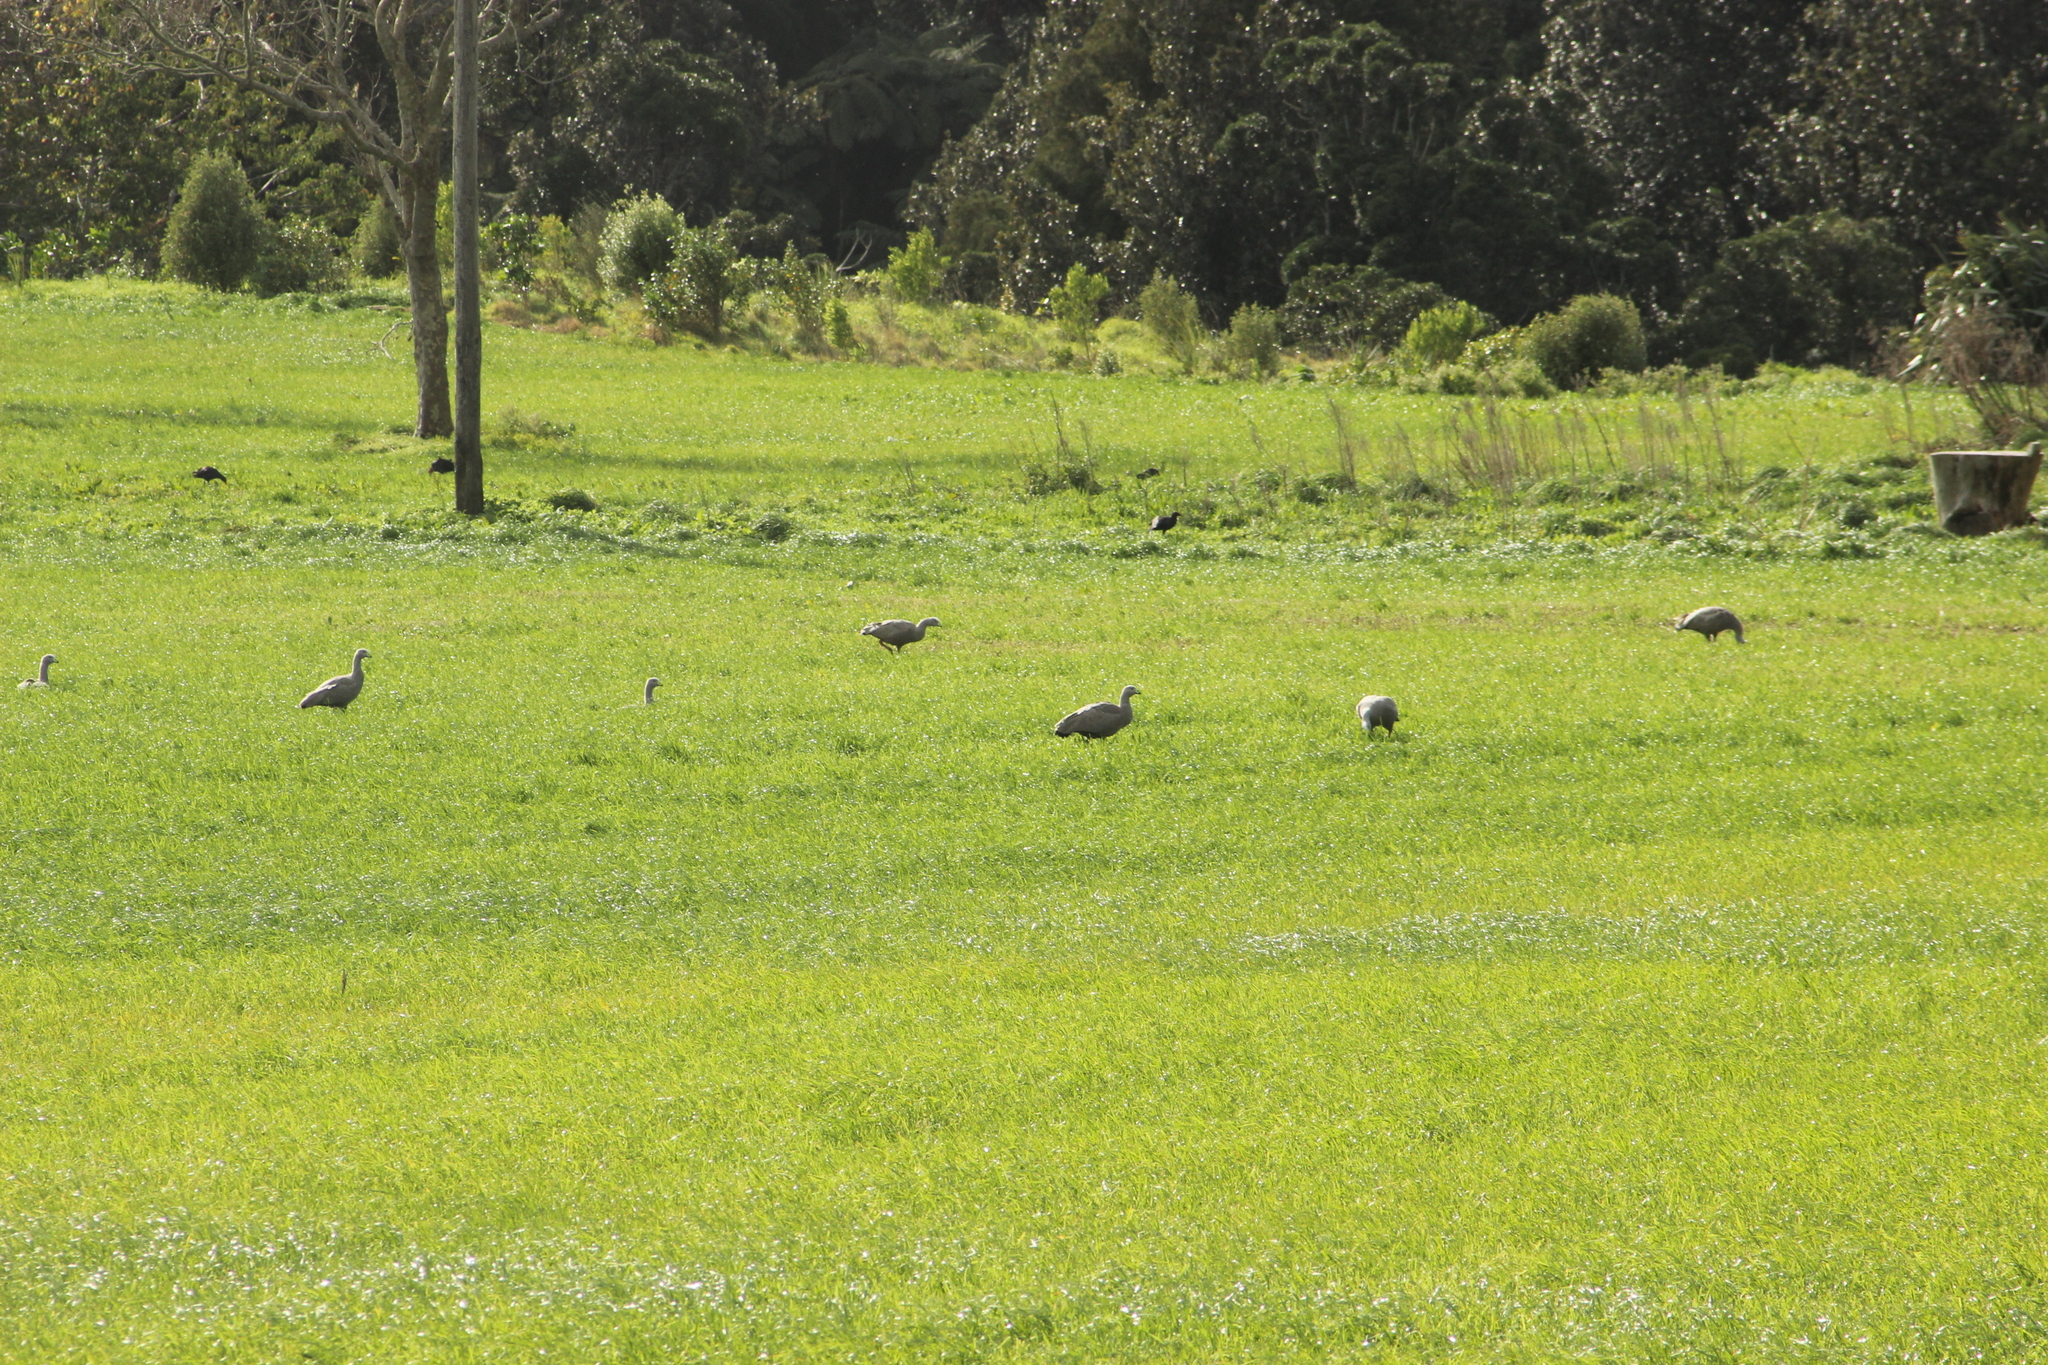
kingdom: Animalia
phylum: Chordata
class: Aves
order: Anseriformes
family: Anatidae
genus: Cereopsis
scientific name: Cereopsis novaehollandiae
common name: Cape barren goose
